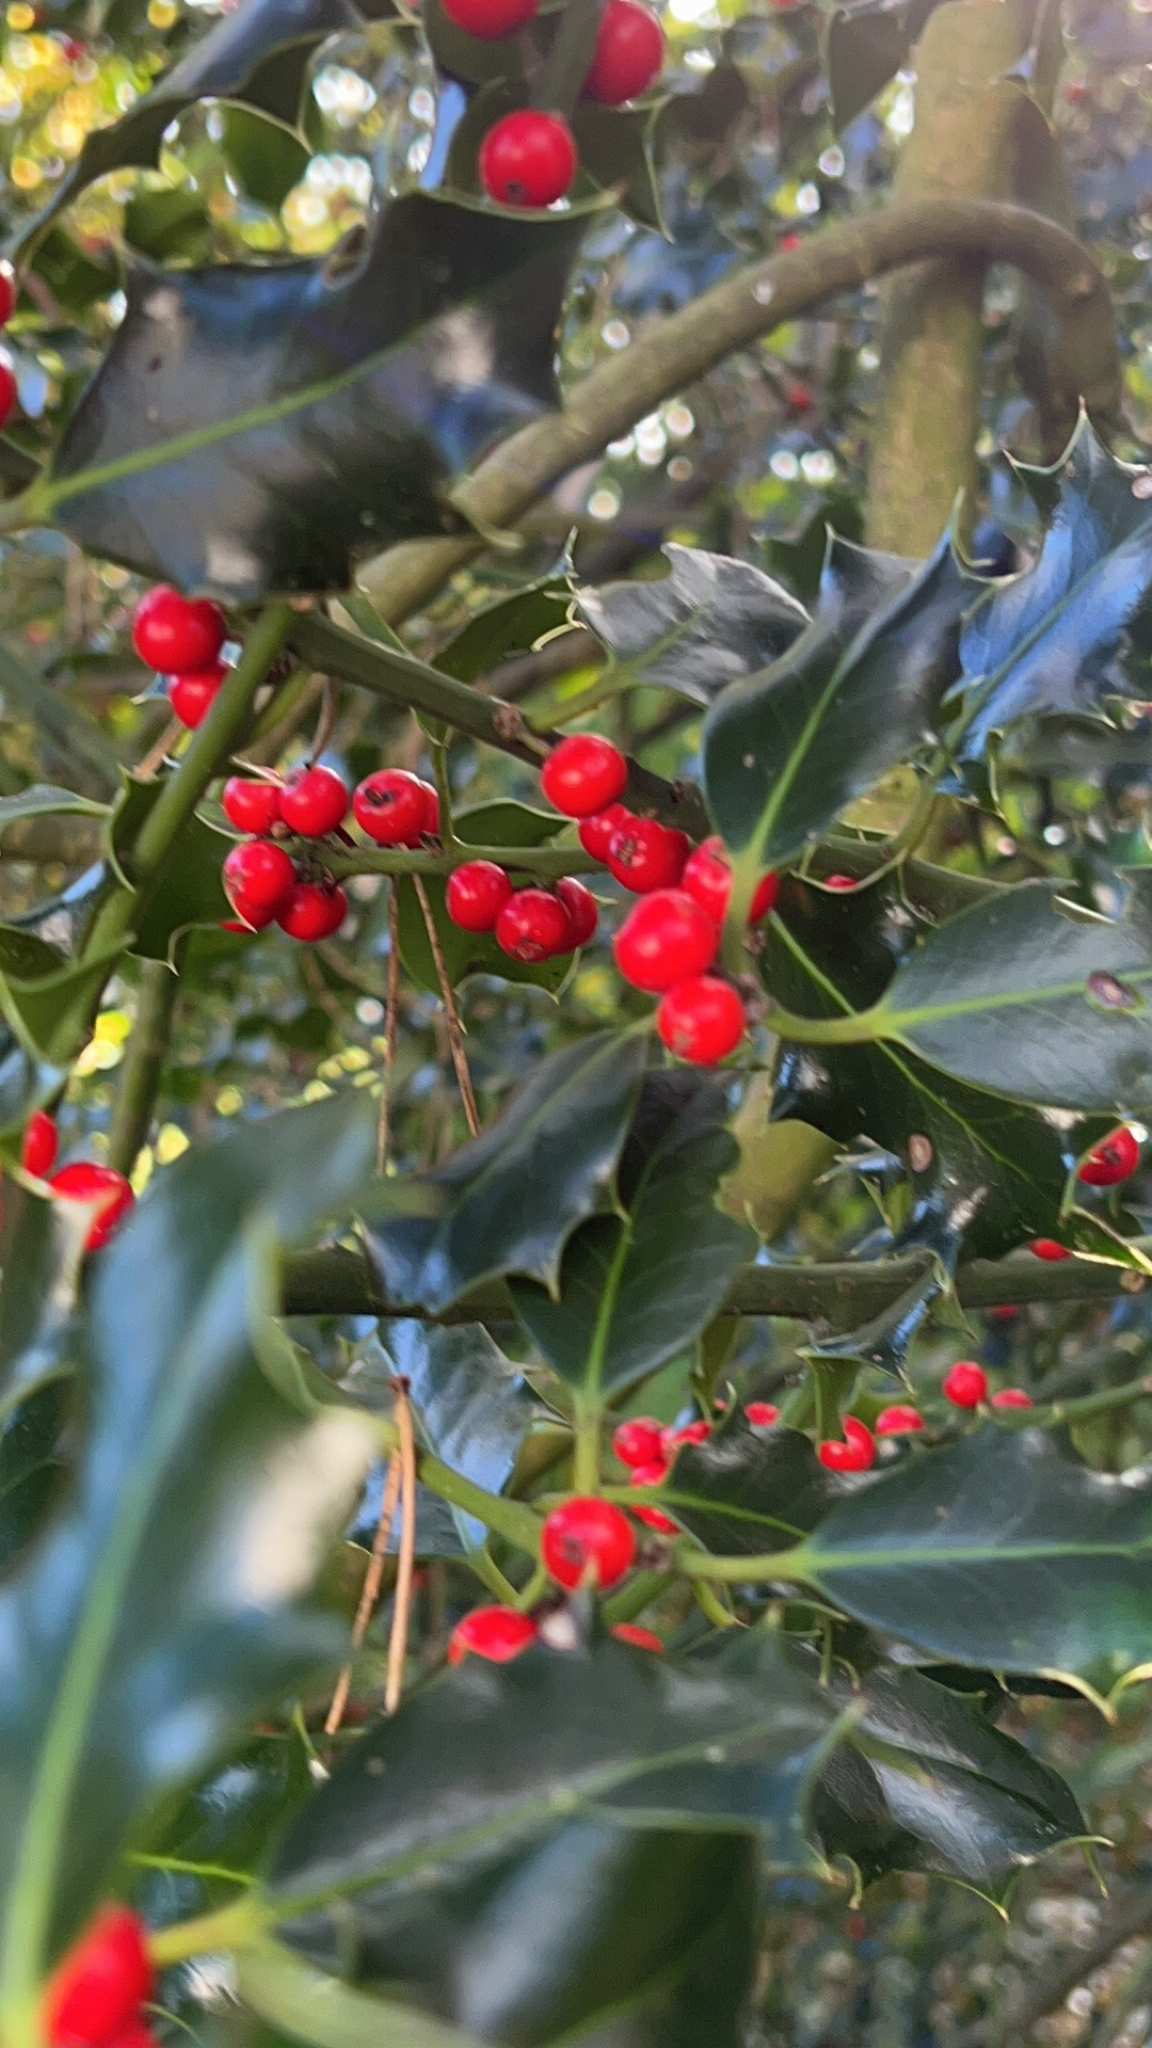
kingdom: Plantae
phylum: Tracheophyta
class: Magnoliopsida
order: Aquifoliales
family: Aquifoliaceae
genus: Ilex
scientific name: Ilex aquifolium
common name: English holly
